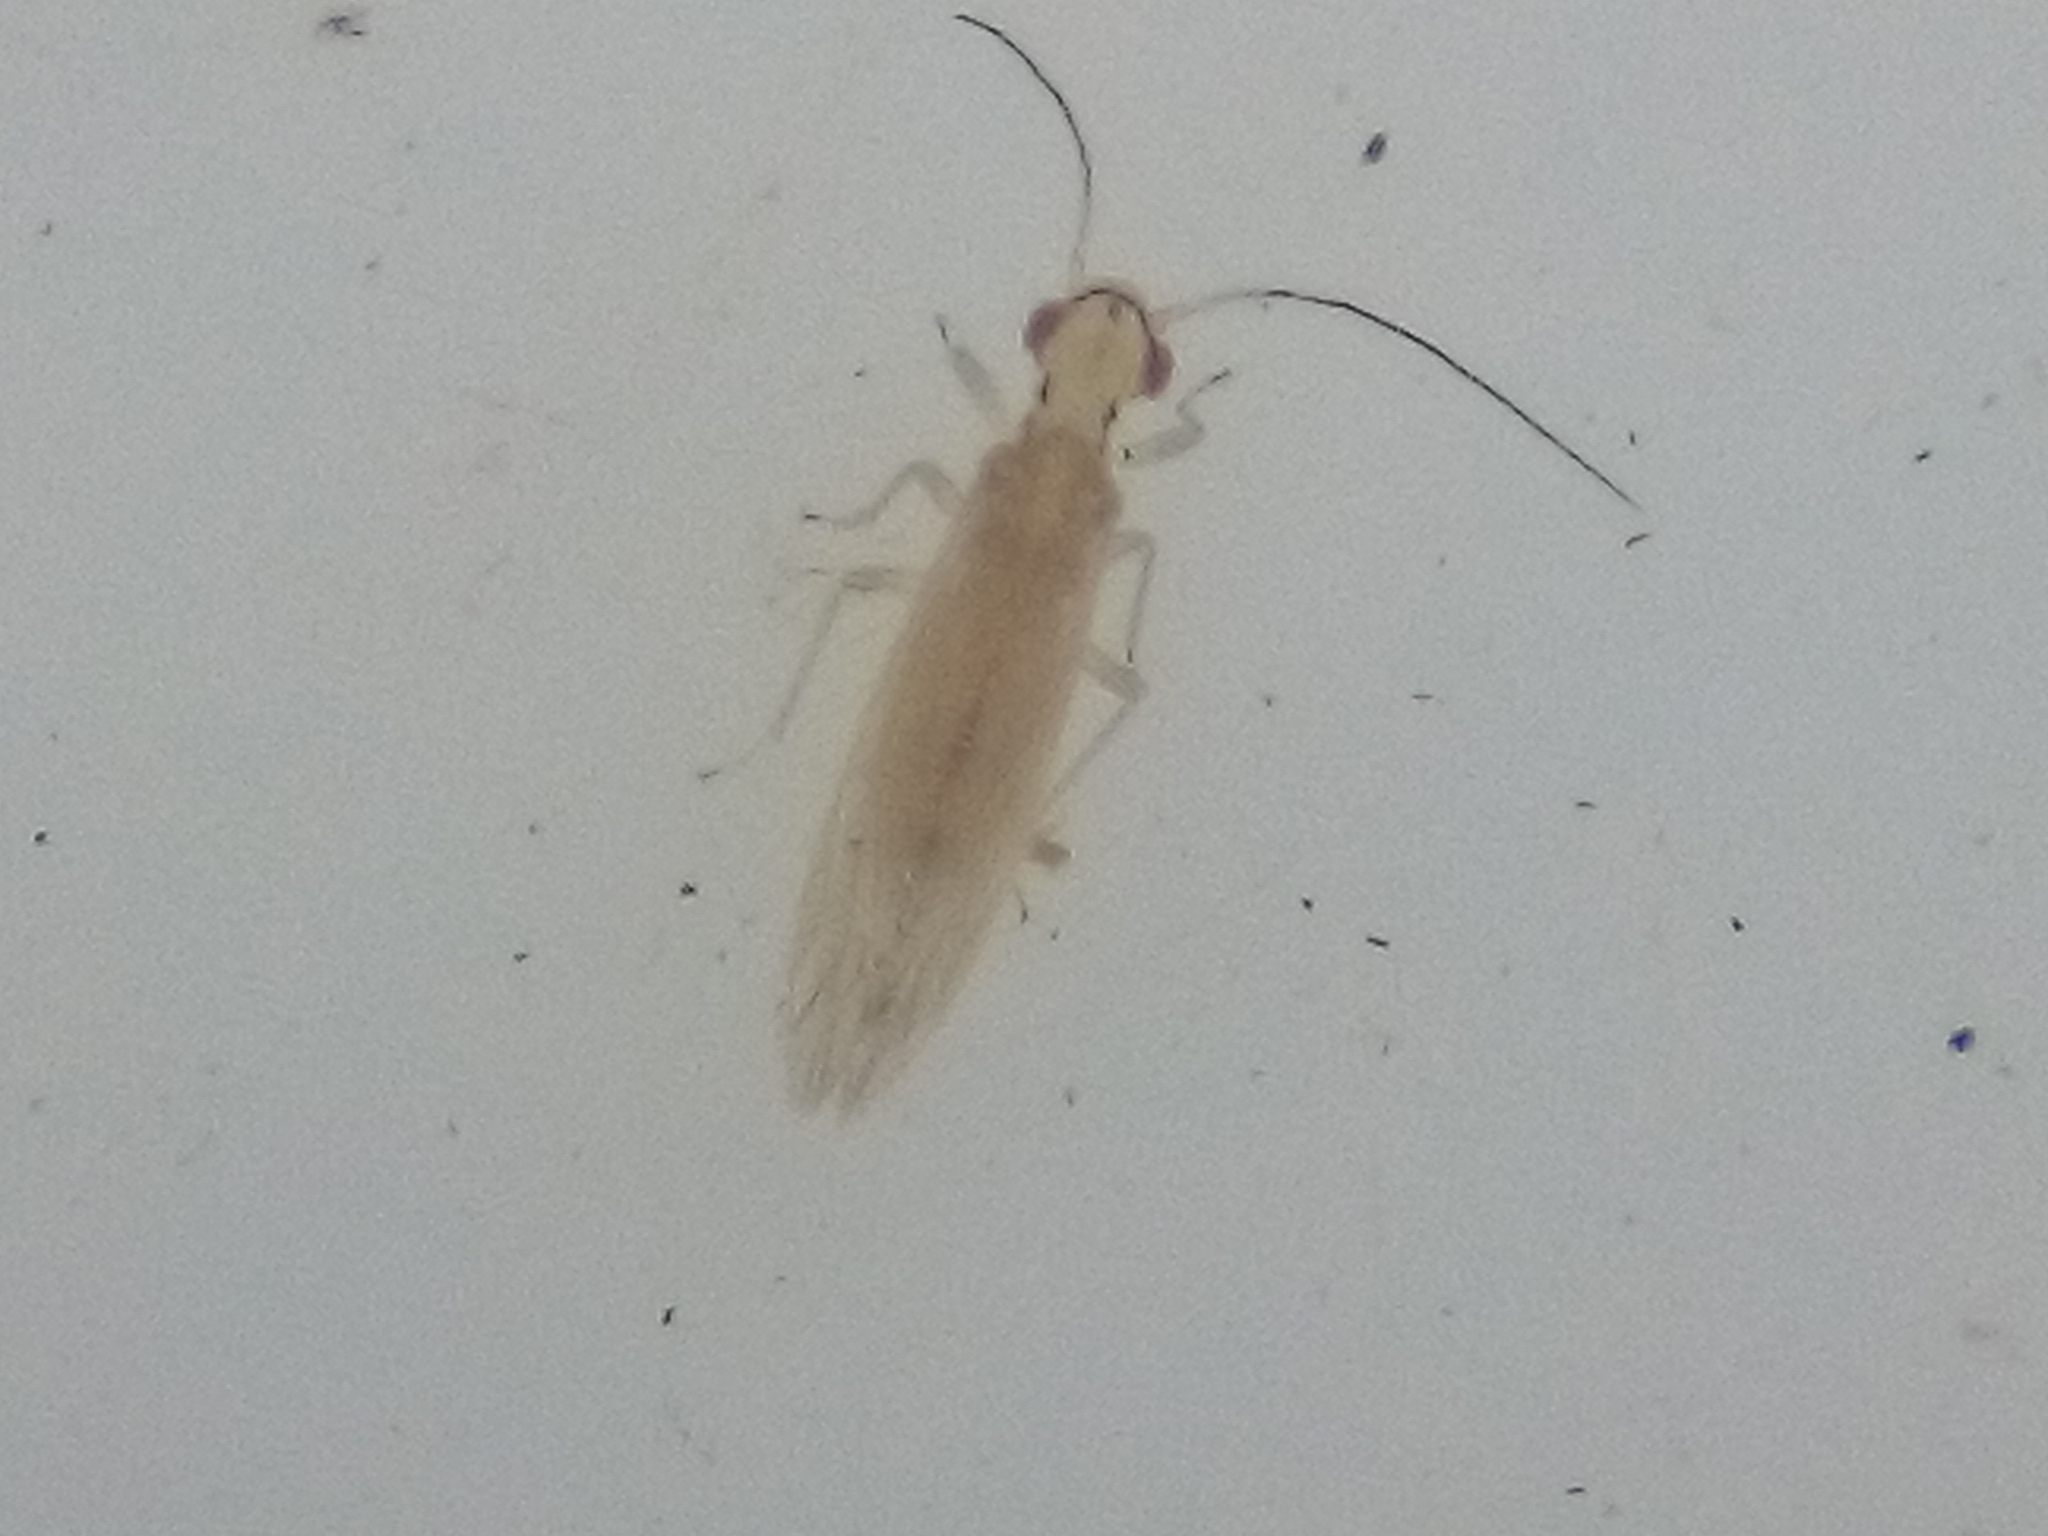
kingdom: Animalia
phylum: Arthropoda
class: Insecta
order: Psocodea
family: Caeciliusidae
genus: Graminacaecilius
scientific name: Graminacaecilius frontalis
